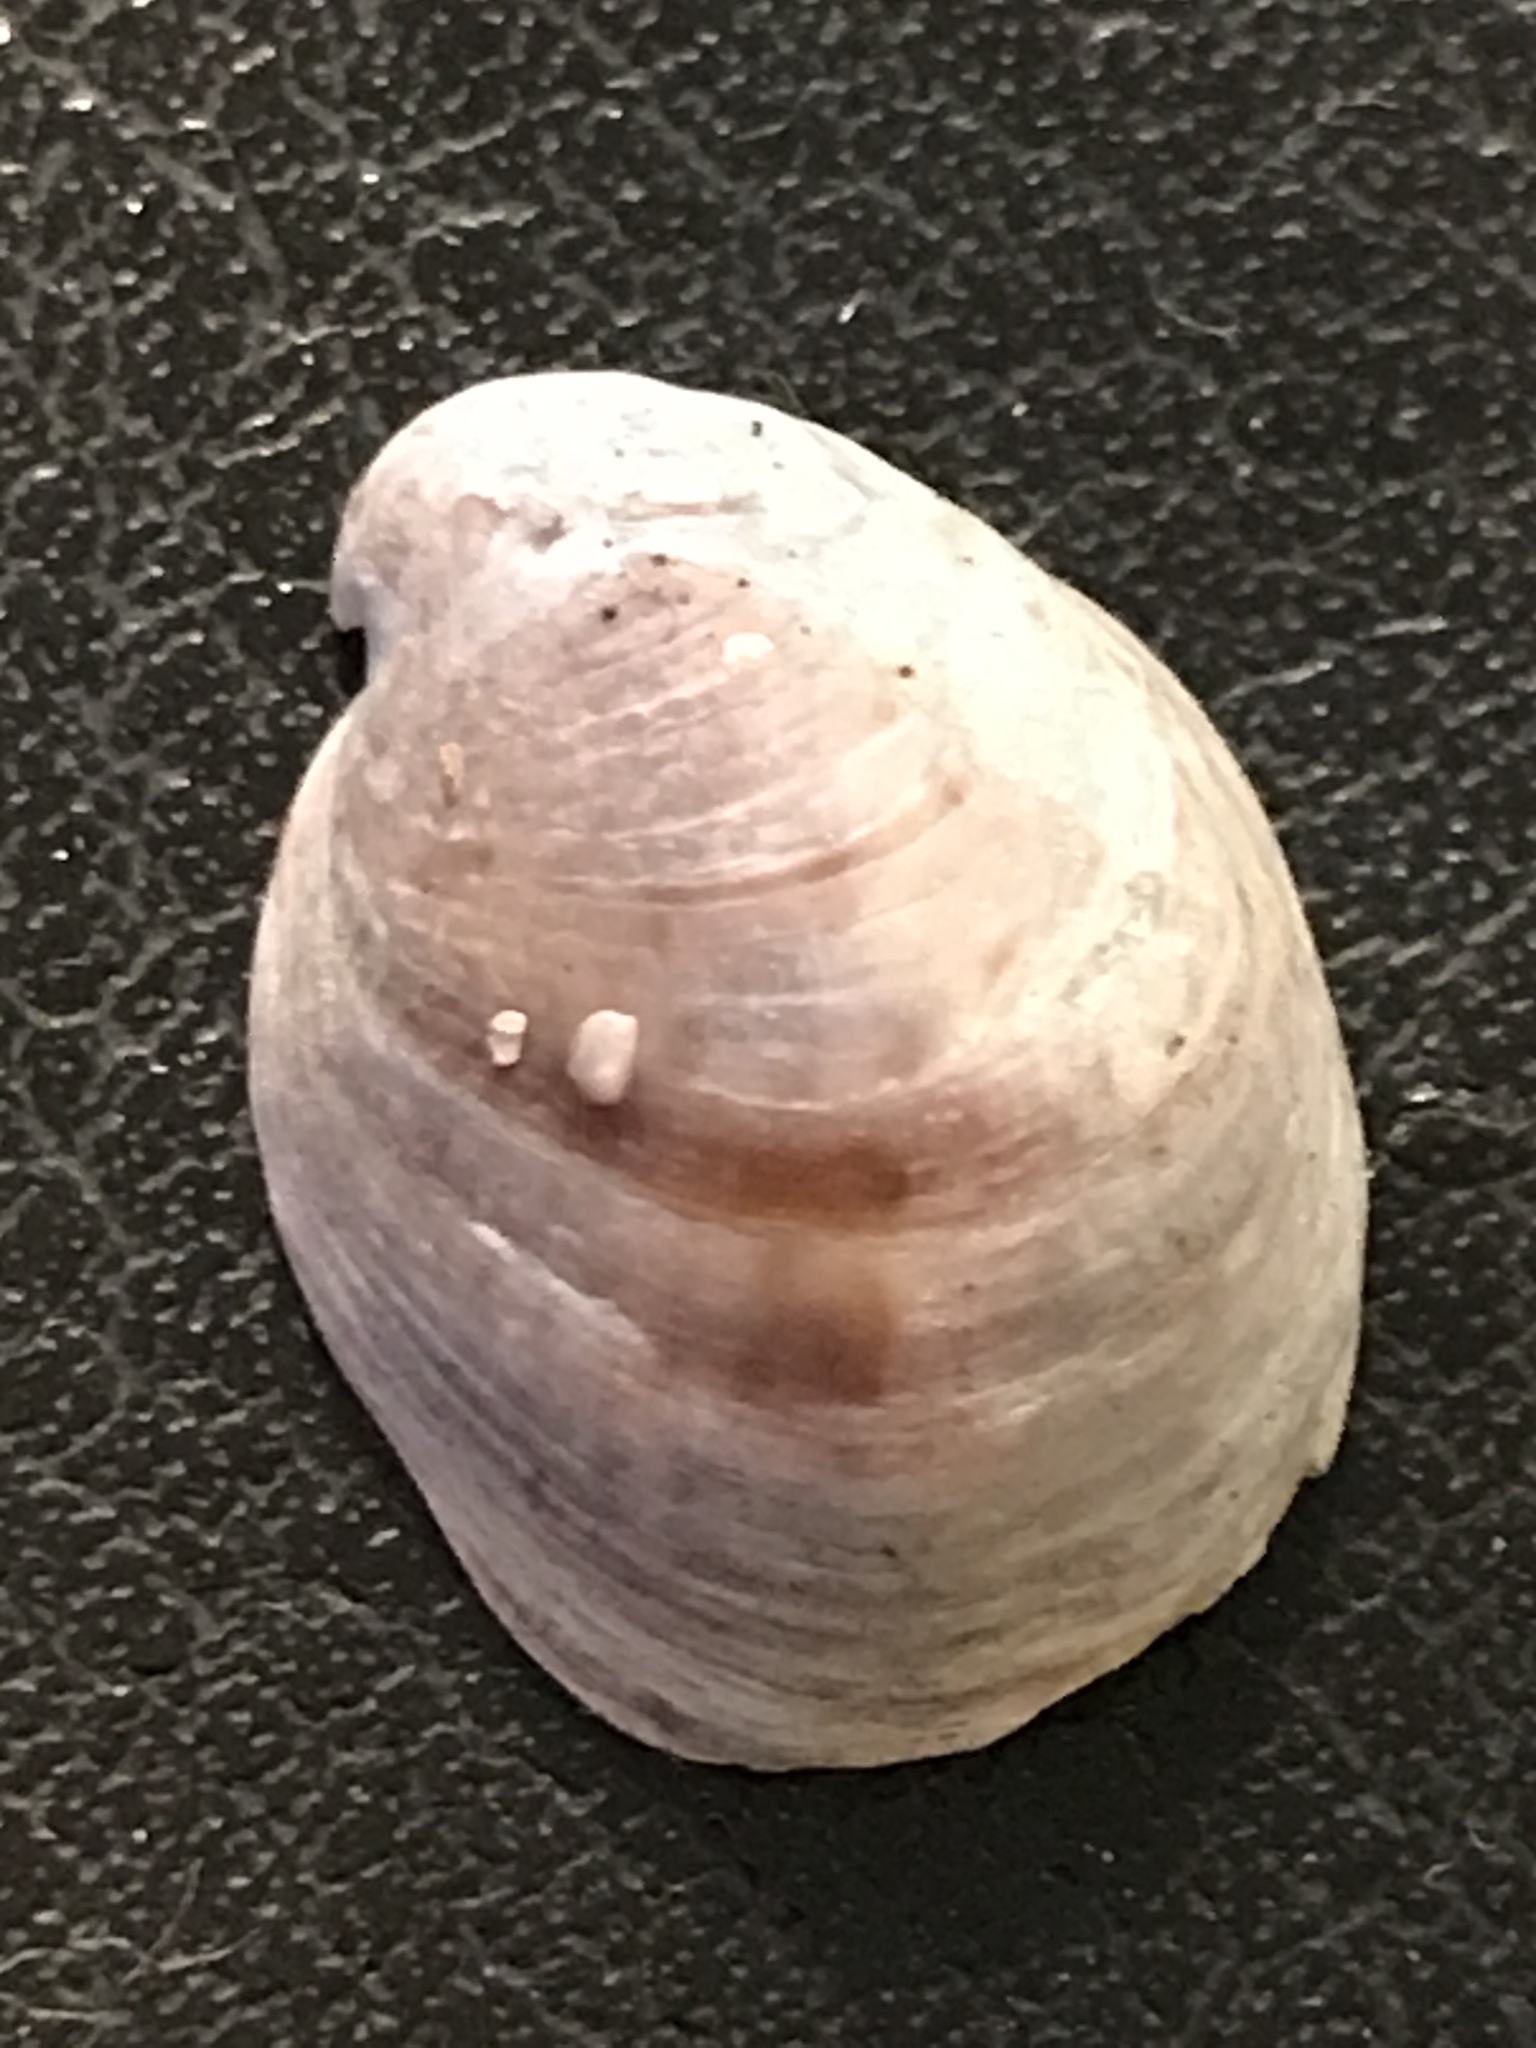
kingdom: Animalia
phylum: Mollusca
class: Gastropoda
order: Littorinimorpha
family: Calyptraeidae
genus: Crepidula
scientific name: Crepidula convexa
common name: Convex slippersnail
